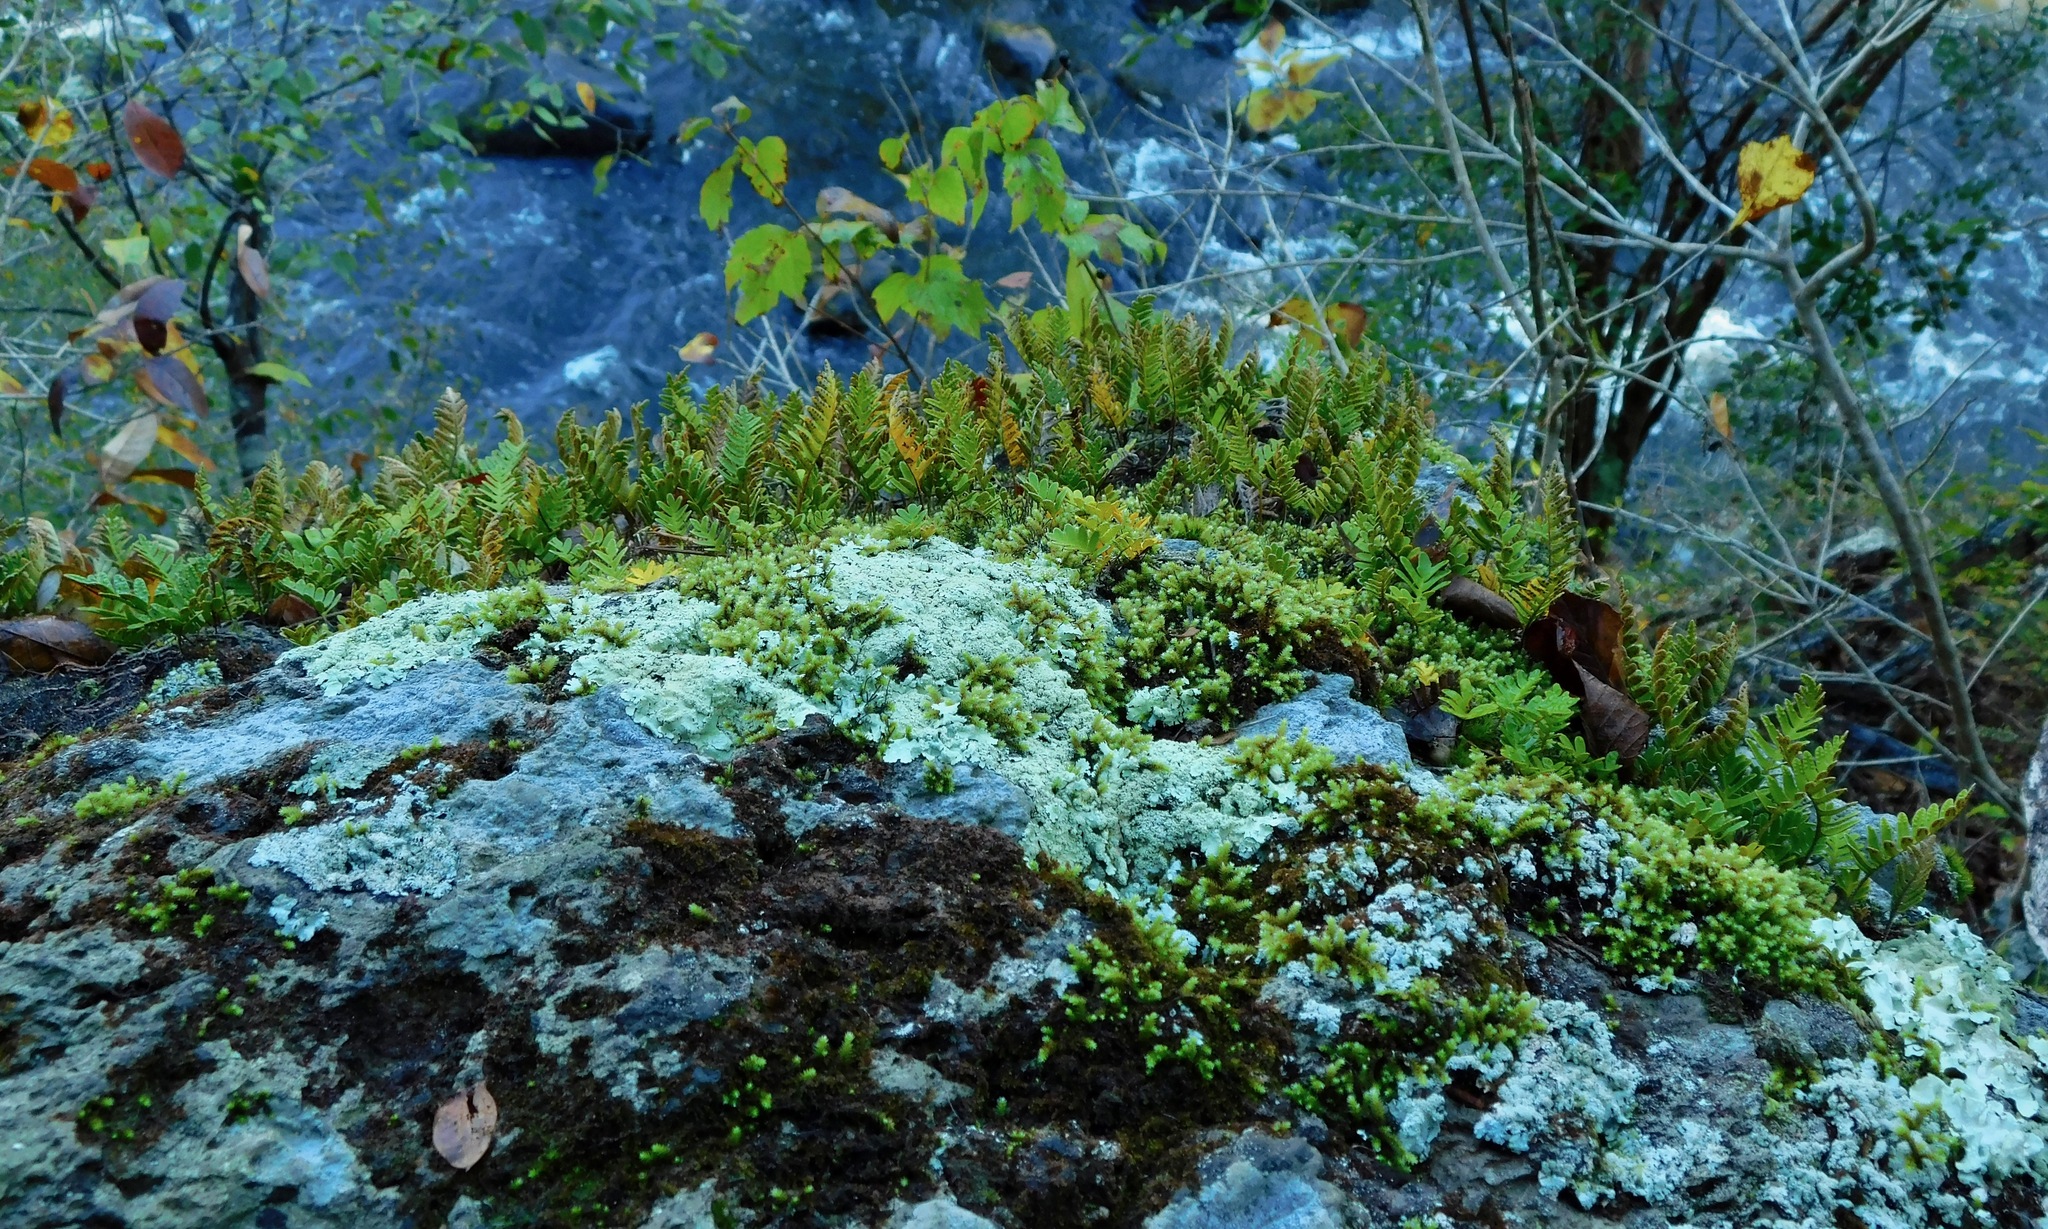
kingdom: Plantae
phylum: Tracheophyta
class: Polypodiopsida
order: Polypodiales
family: Polypodiaceae
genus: Pleopeltis
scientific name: Pleopeltis michauxiana
